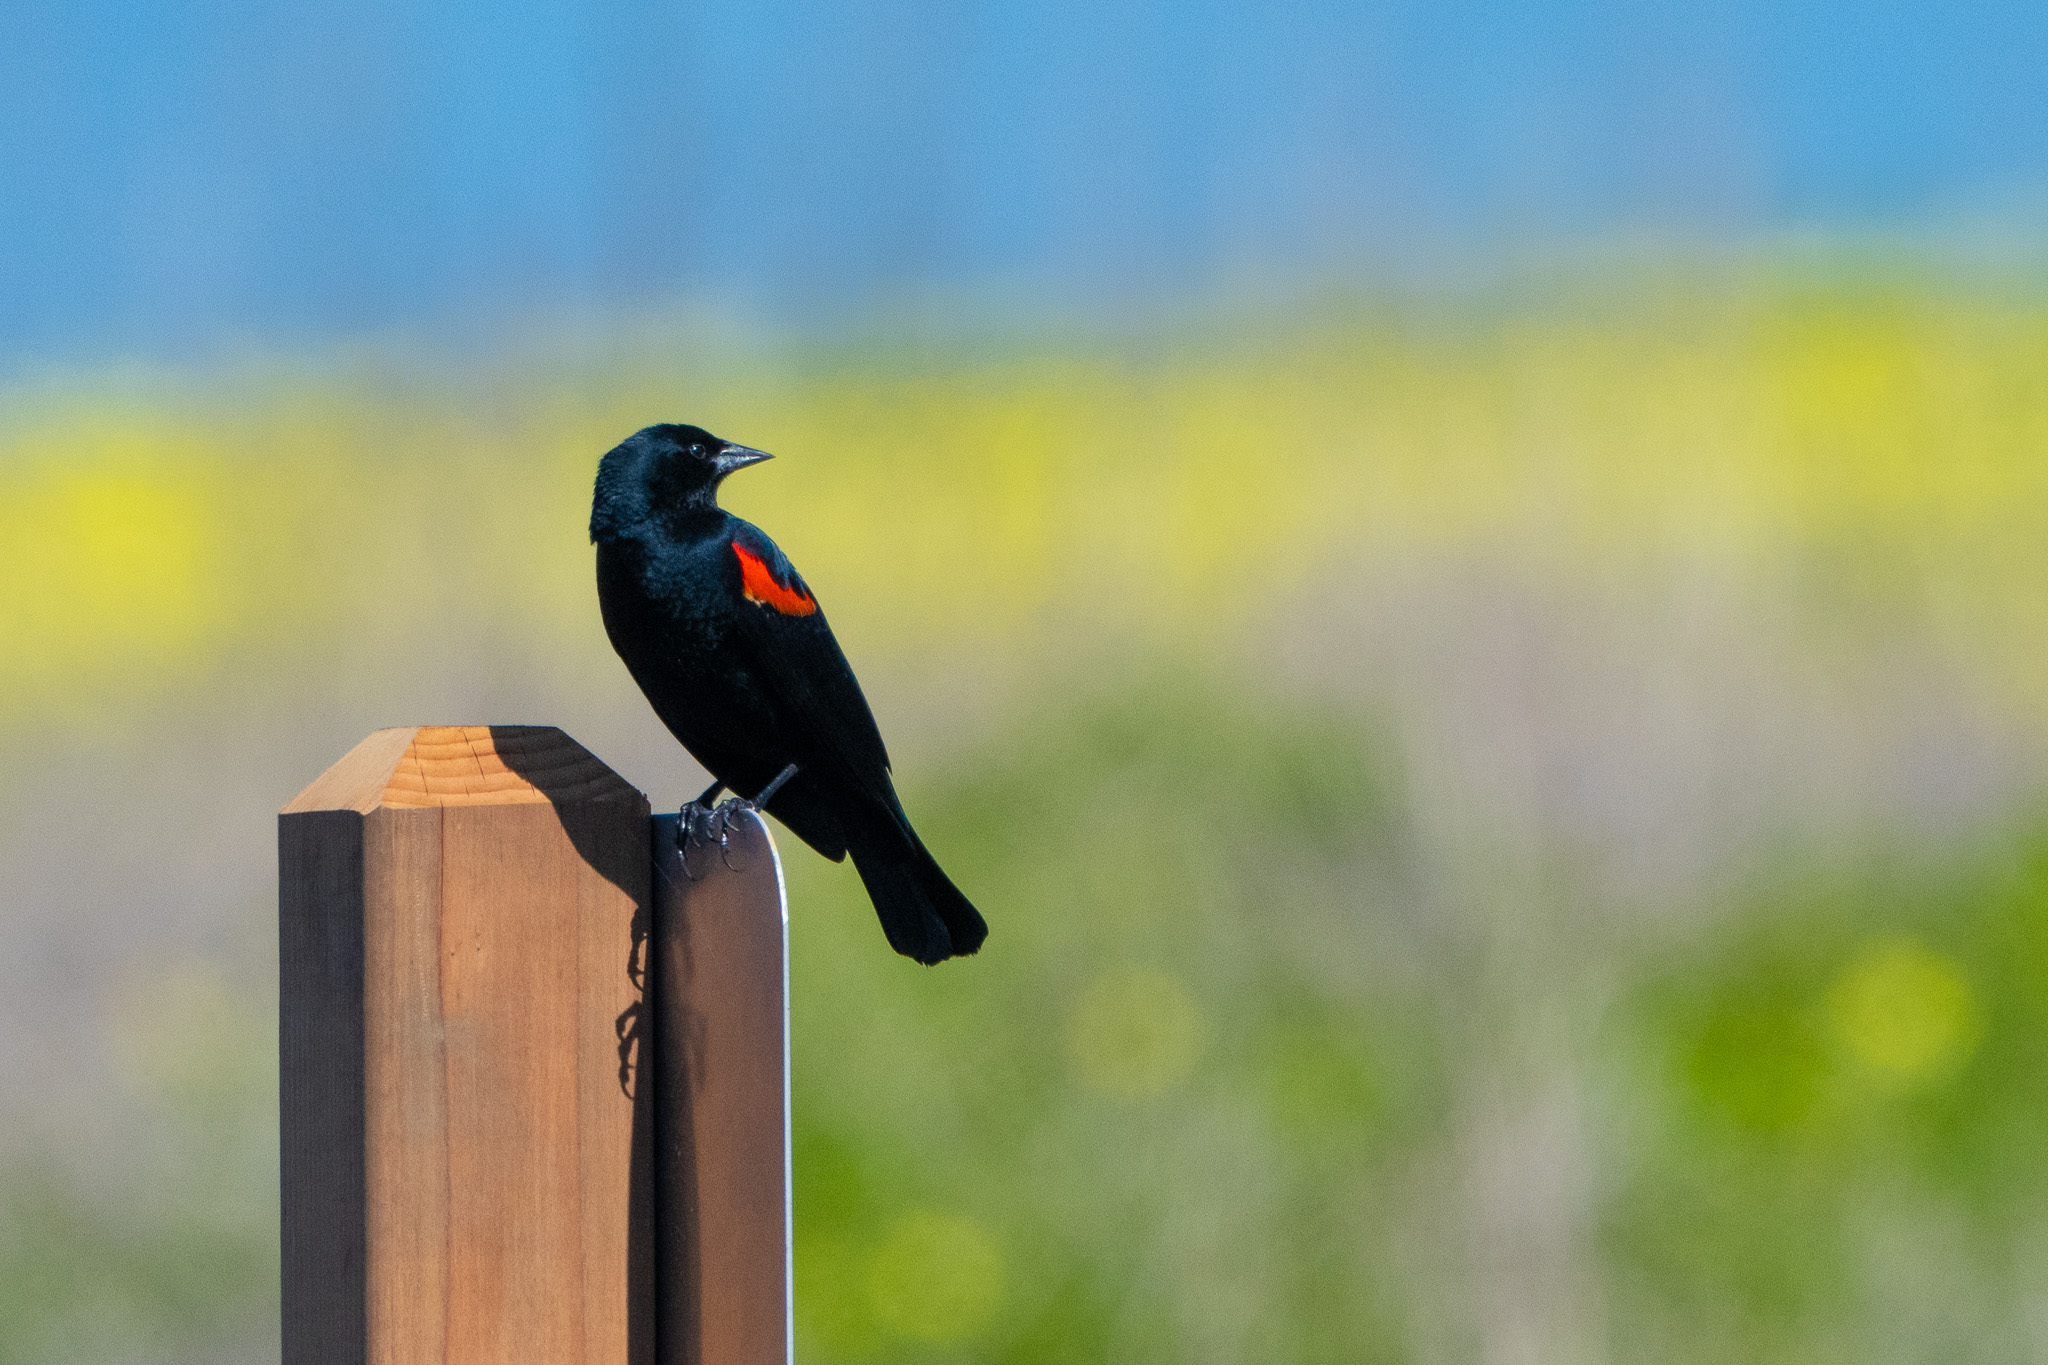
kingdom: Animalia
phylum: Chordata
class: Aves
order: Passeriformes
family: Icteridae
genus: Agelaius
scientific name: Agelaius phoeniceus
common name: Red-winged blackbird
